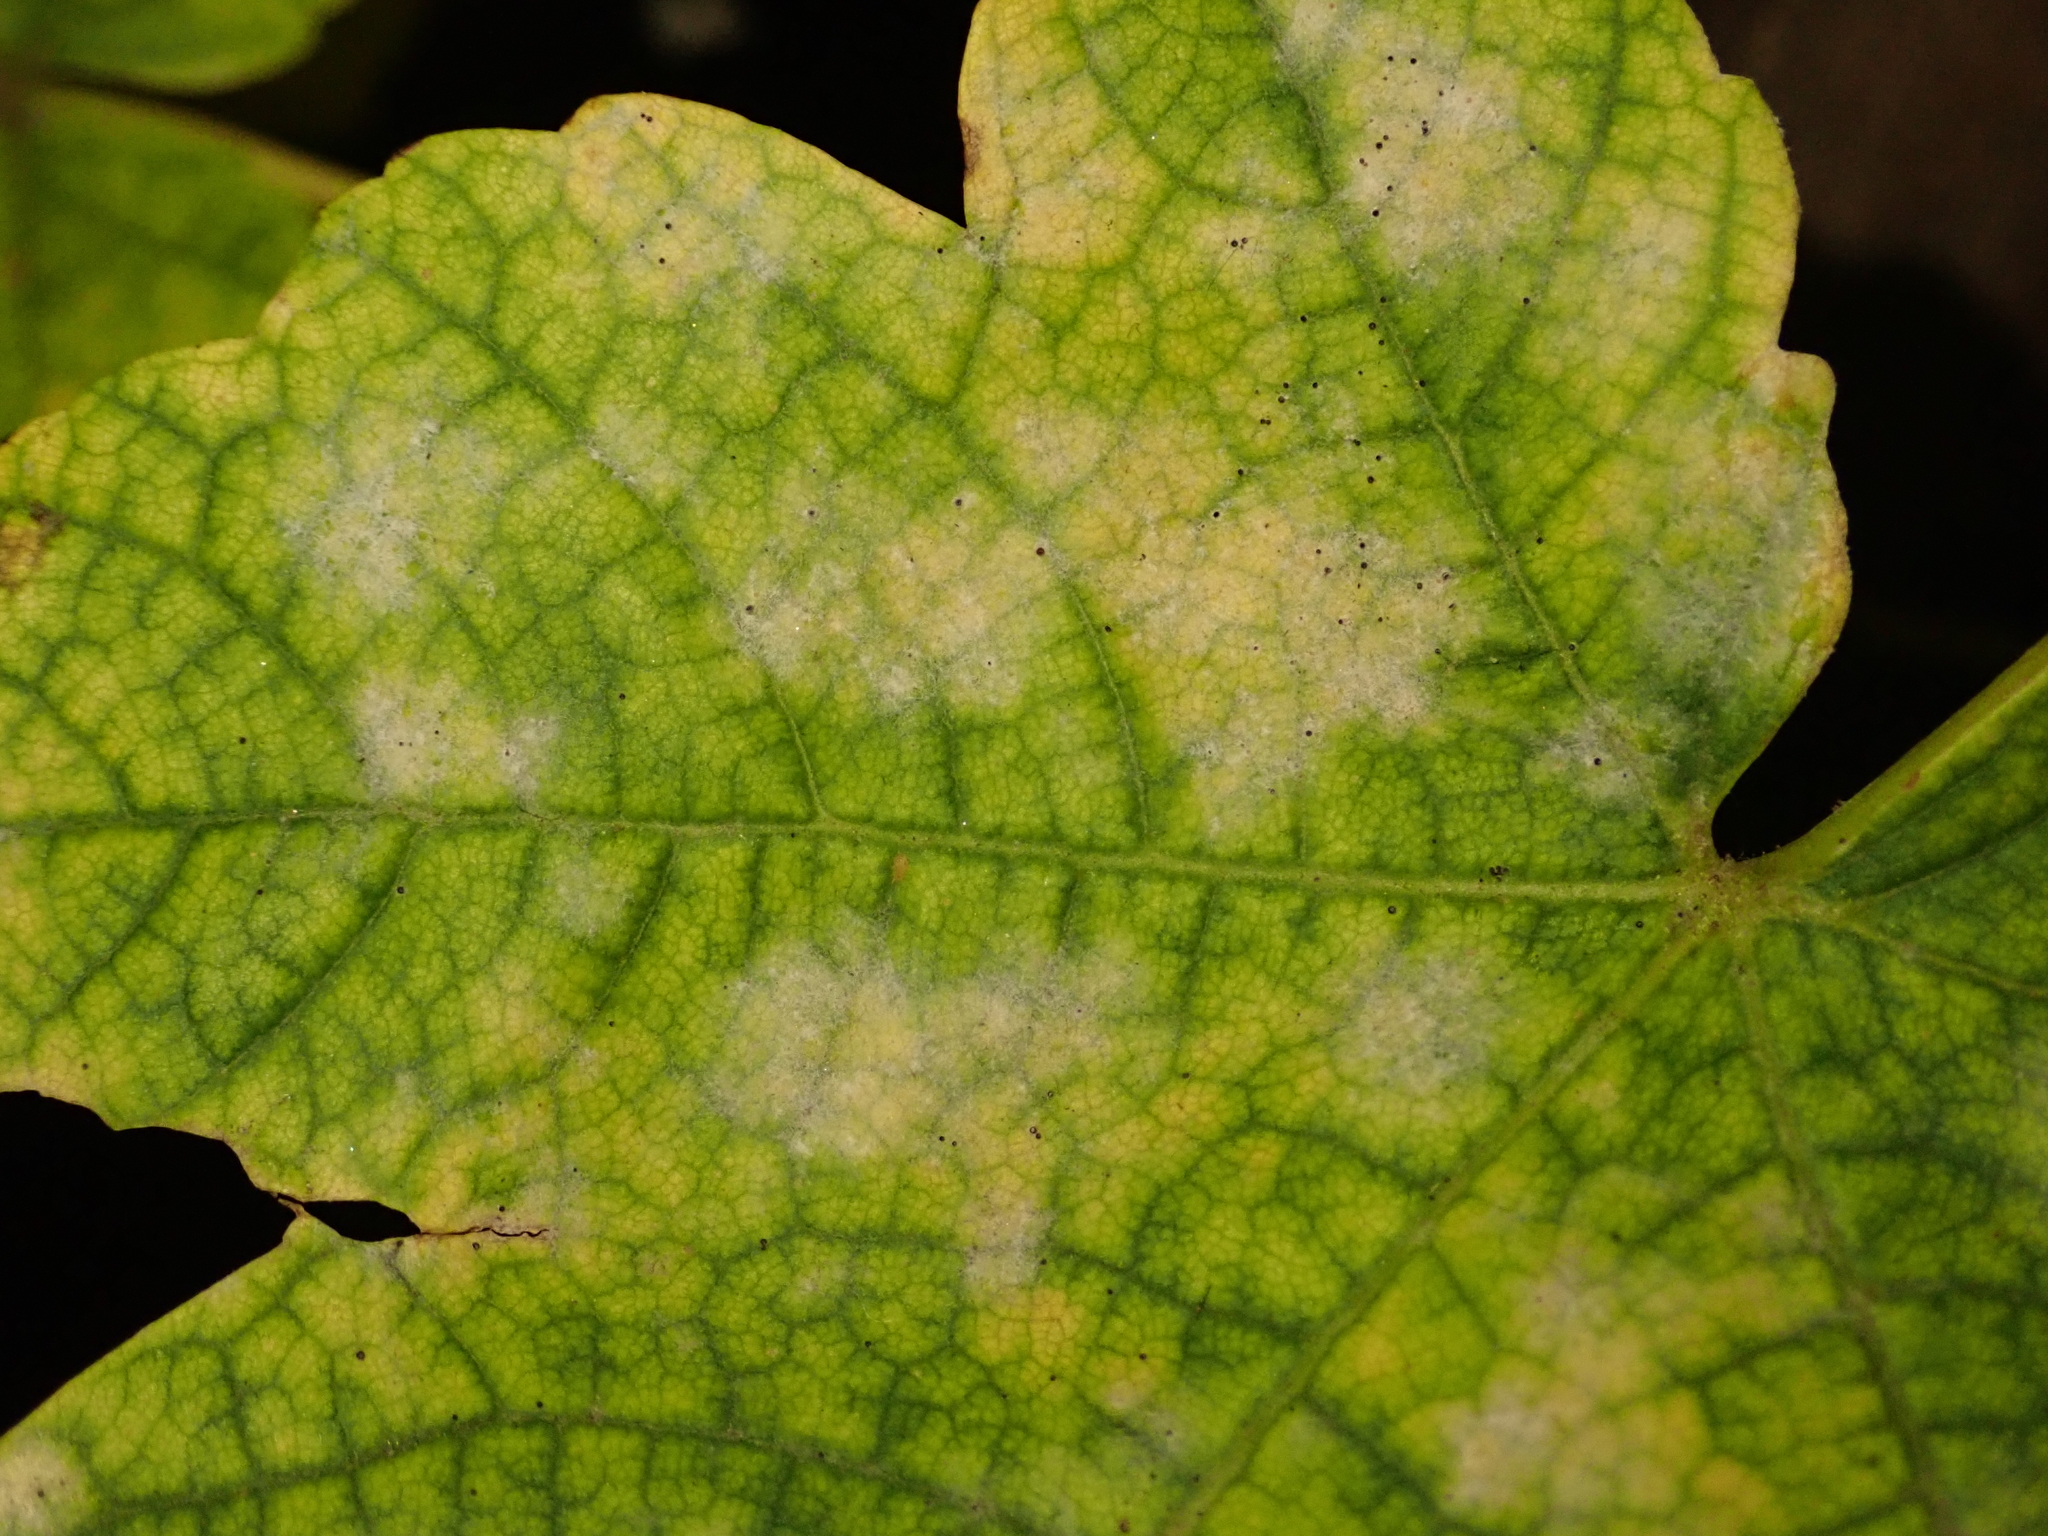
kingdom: Fungi
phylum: Ascomycota
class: Leotiomycetes
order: Helotiales
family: Erysiphaceae
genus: Sawadaea
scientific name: Sawadaea bicornis
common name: Maple mildew
